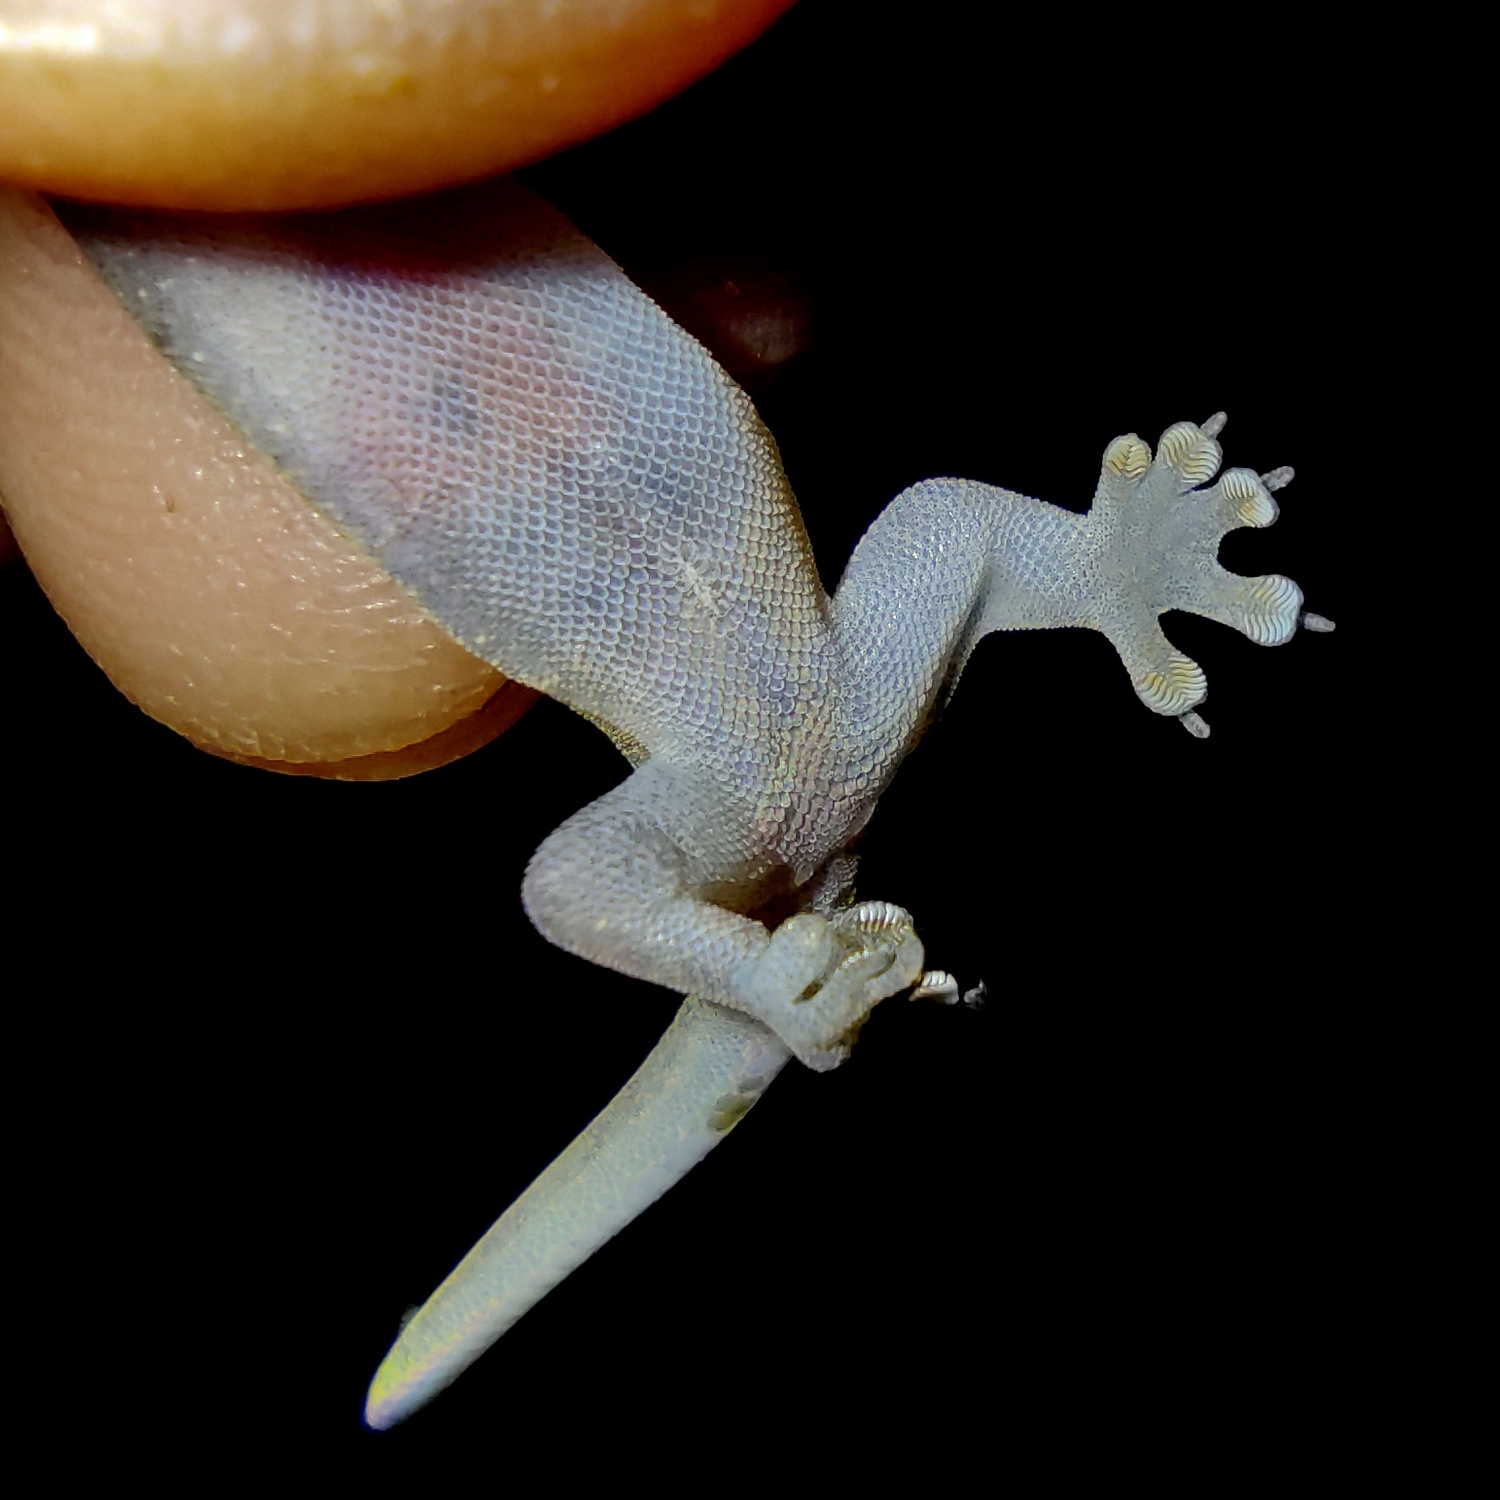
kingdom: Animalia
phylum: Chordata
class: Squamata
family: Gekkonidae
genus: Gehyra
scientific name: Gehyra mutilata
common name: Stump-toed gecko
